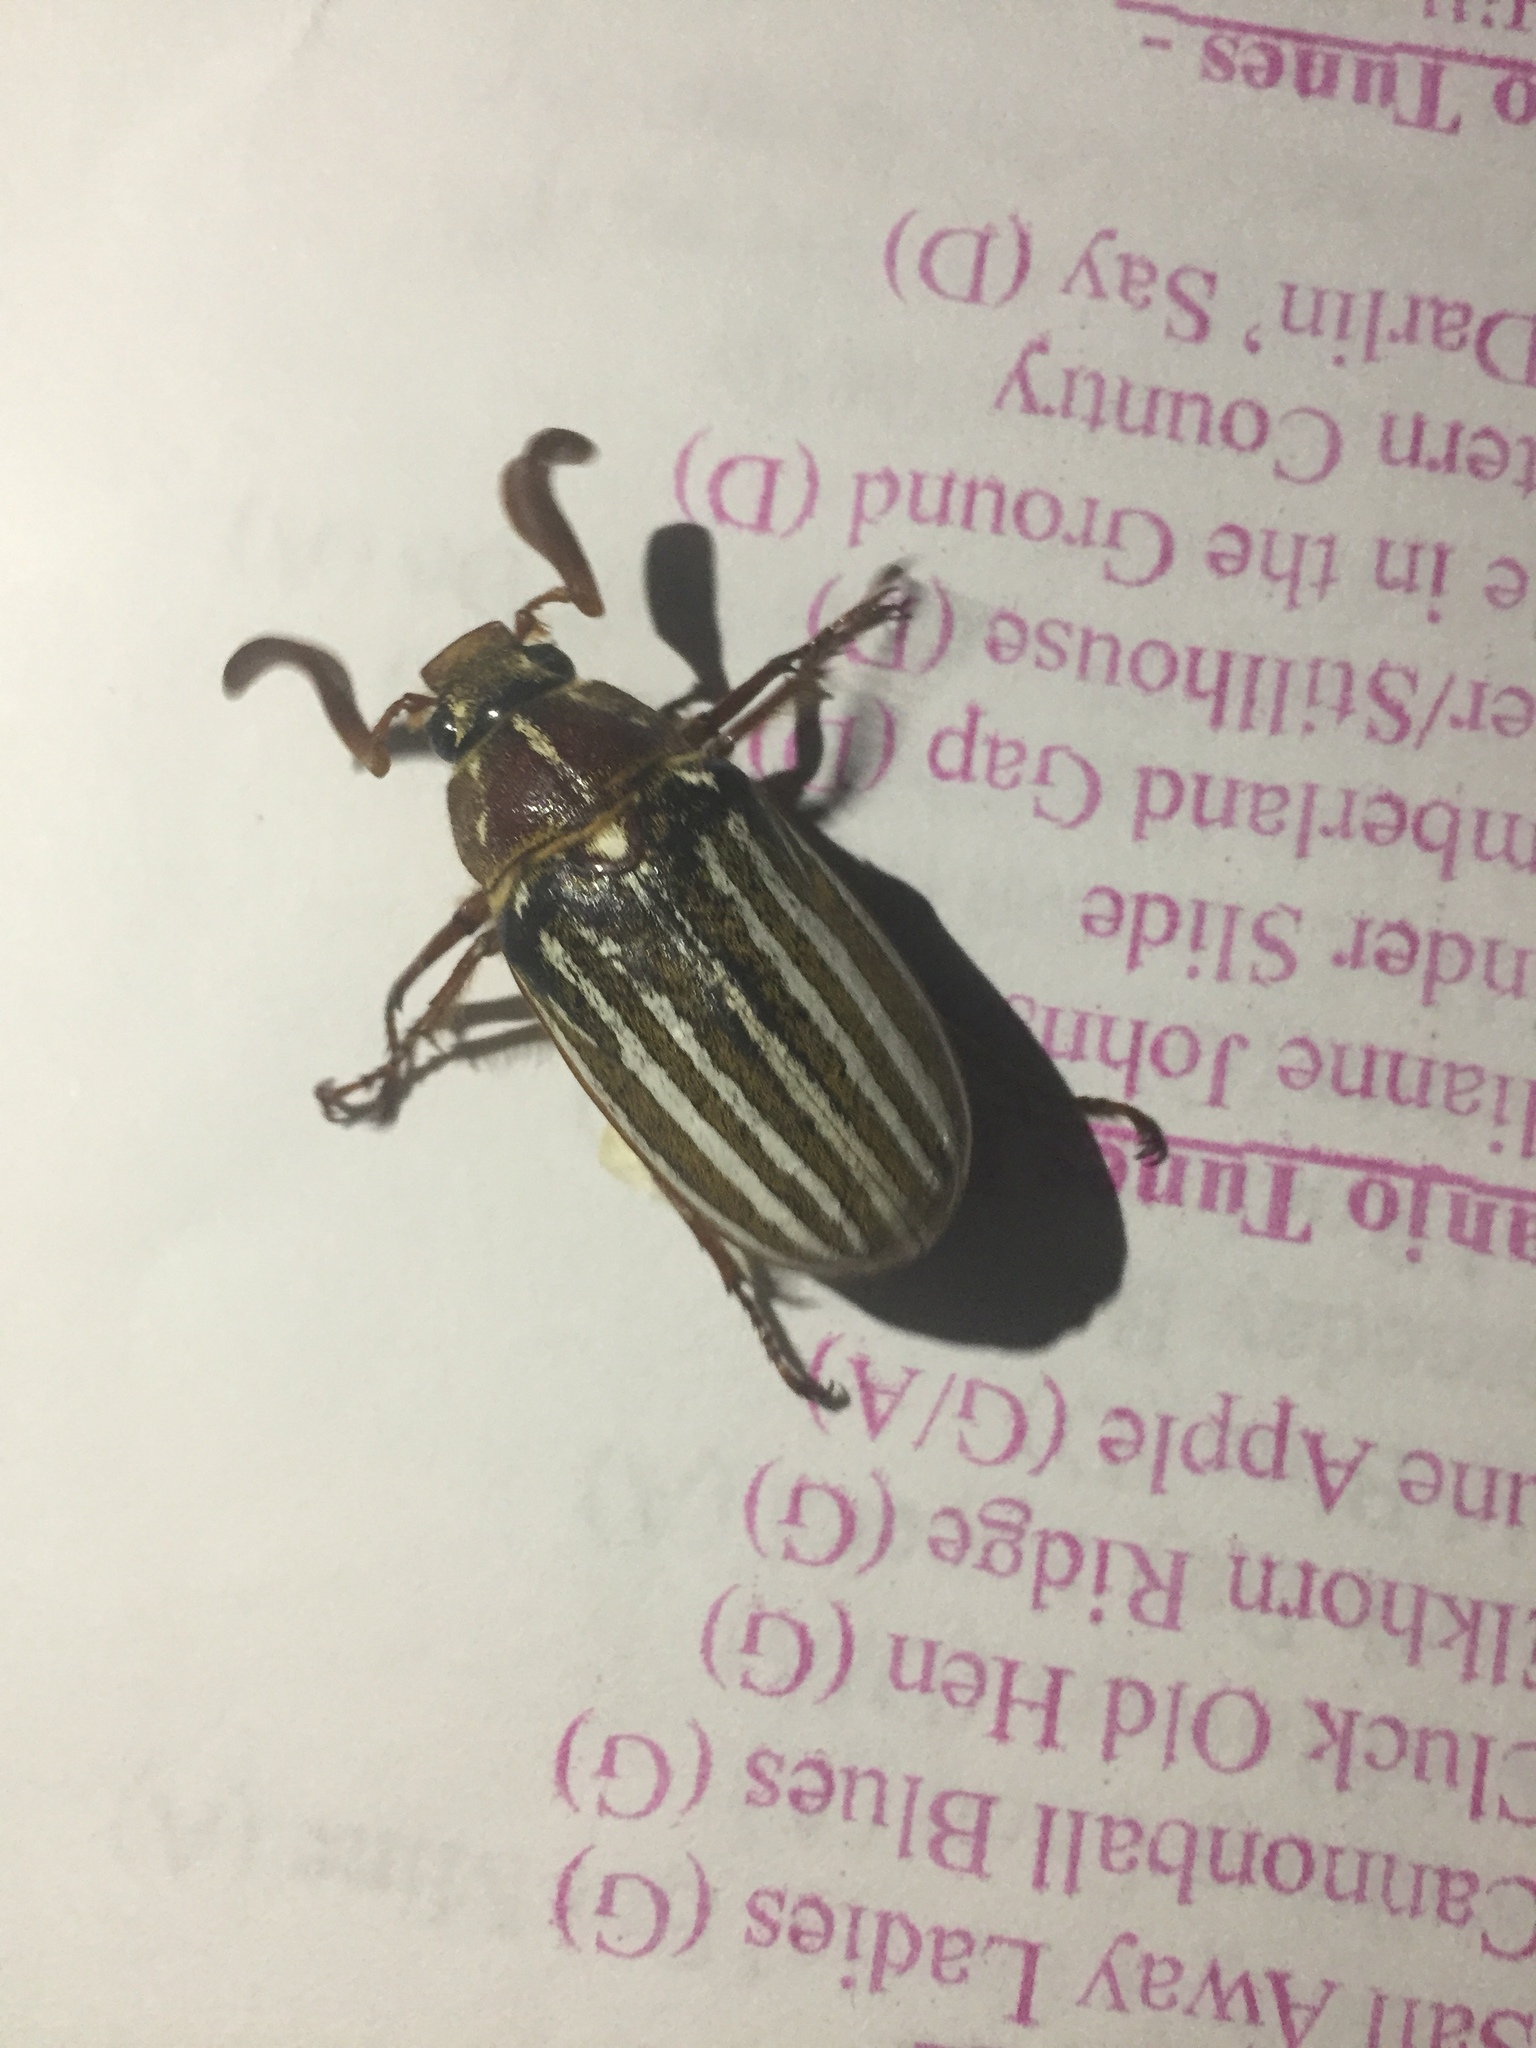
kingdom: Animalia
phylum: Arthropoda
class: Insecta
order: Coleoptera
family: Scarabaeidae
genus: Polyphylla
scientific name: Polyphylla decemlineata
